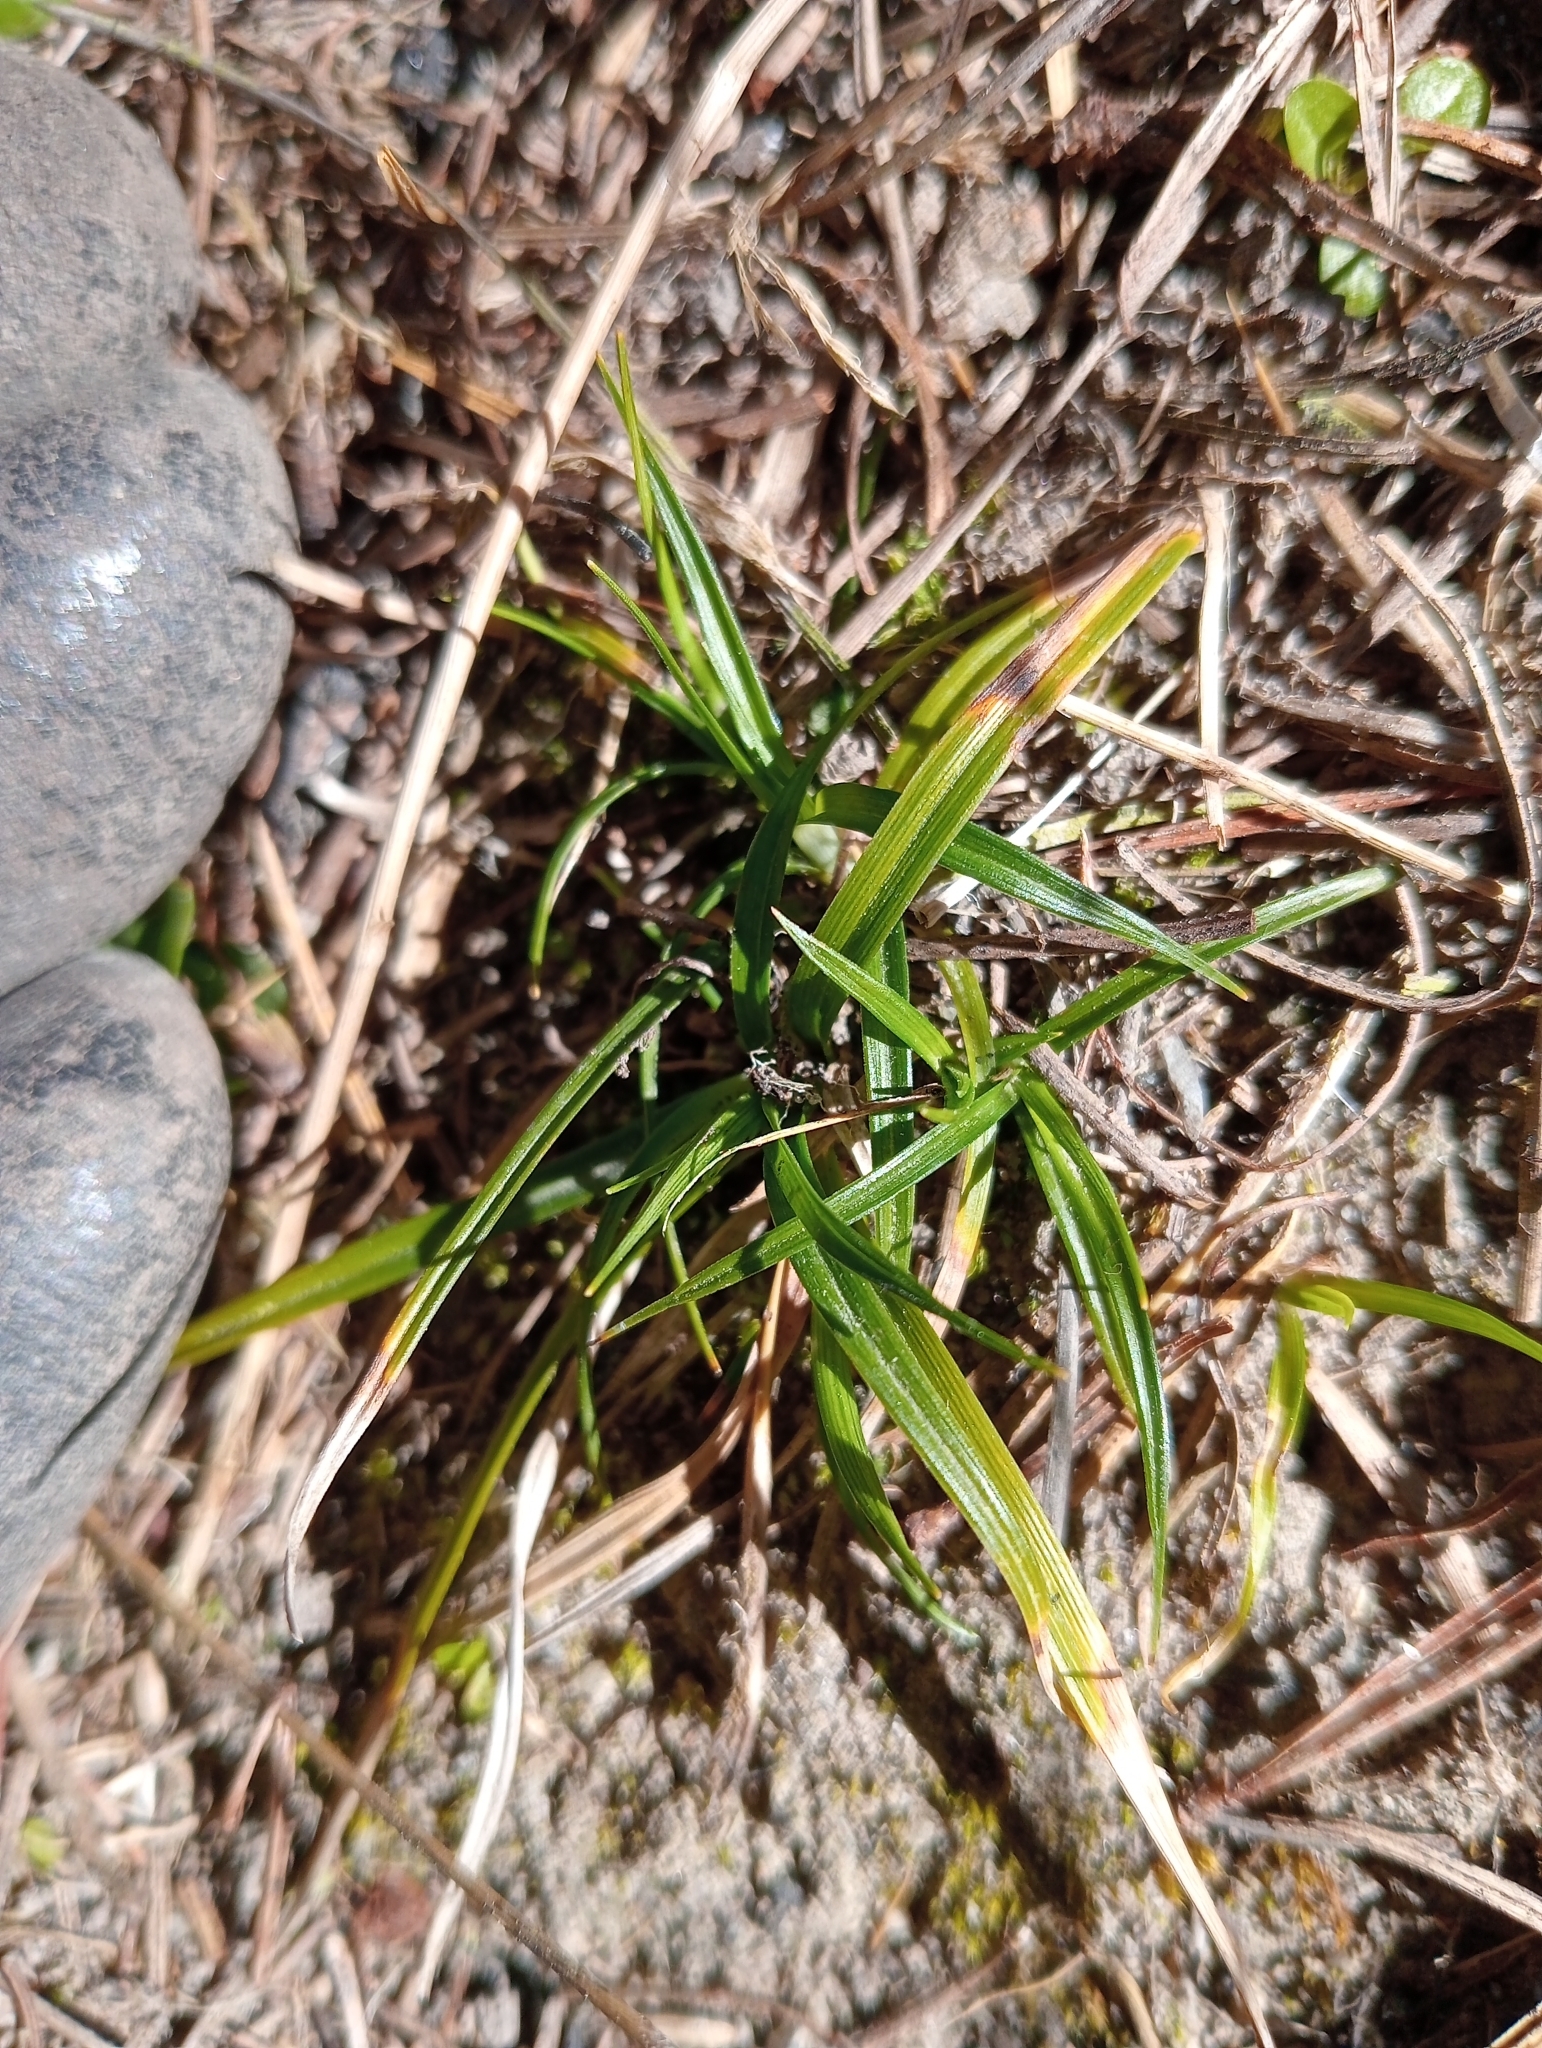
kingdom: Plantae
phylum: Tracheophyta
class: Liliopsida
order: Poales
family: Cyperaceae
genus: Carex
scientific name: Carex breviculmis
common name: Asian shortstem sedge
